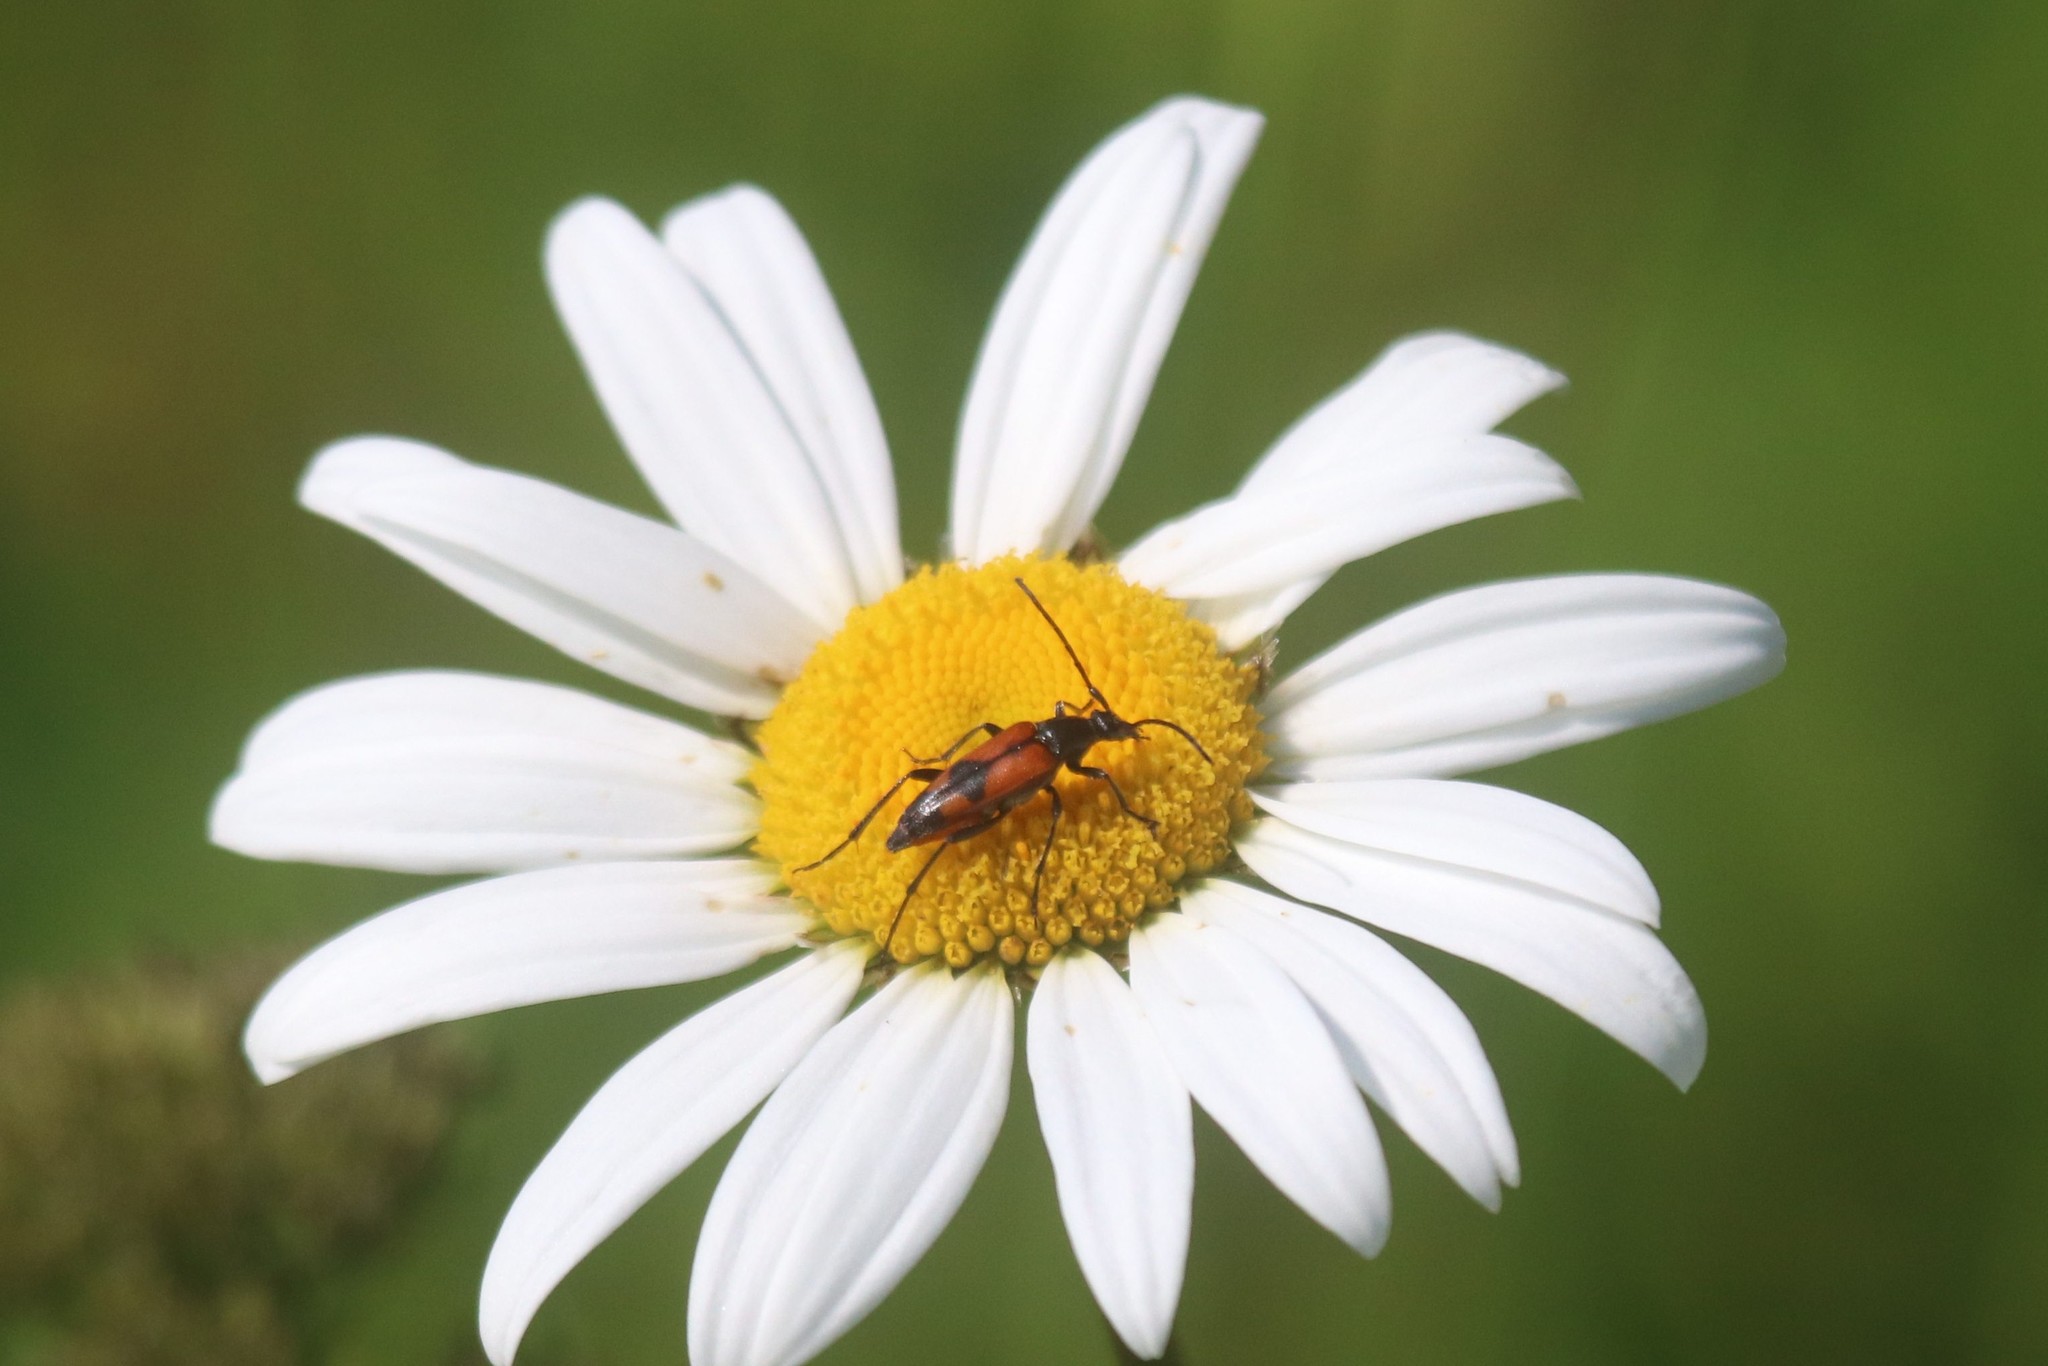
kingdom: Animalia
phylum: Arthropoda
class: Insecta
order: Coleoptera
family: Cerambycidae
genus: Stenurella
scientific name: Stenurella bifasciata
